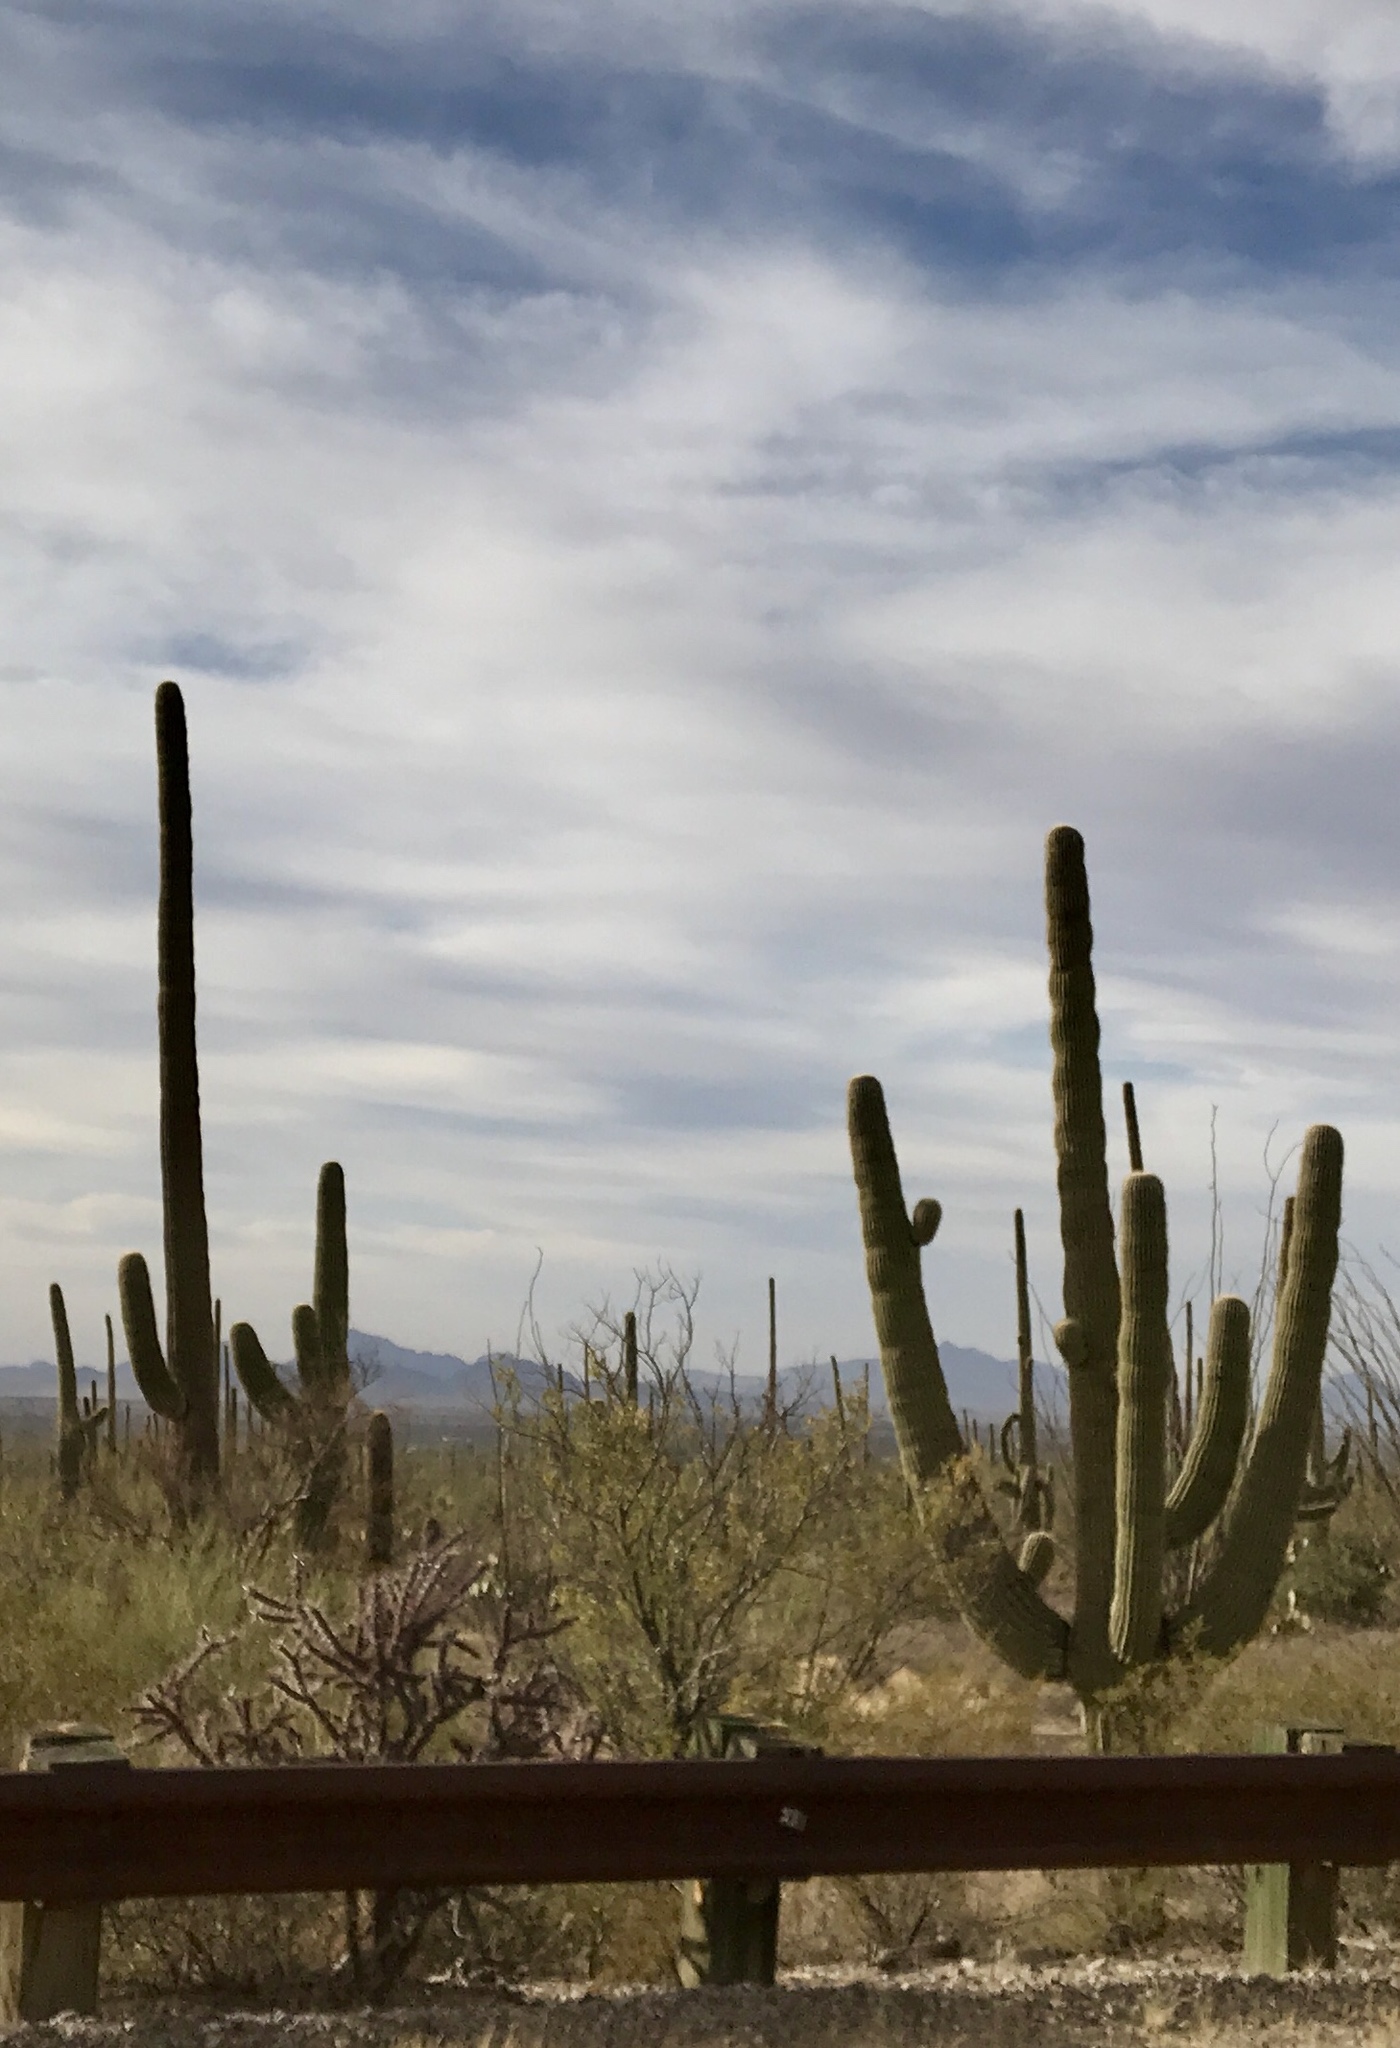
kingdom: Plantae
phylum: Tracheophyta
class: Magnoliopsida
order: Caryophyllales
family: Cactaceae
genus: Carnegiea
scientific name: Carnegiea gigantea
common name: Saguaro
